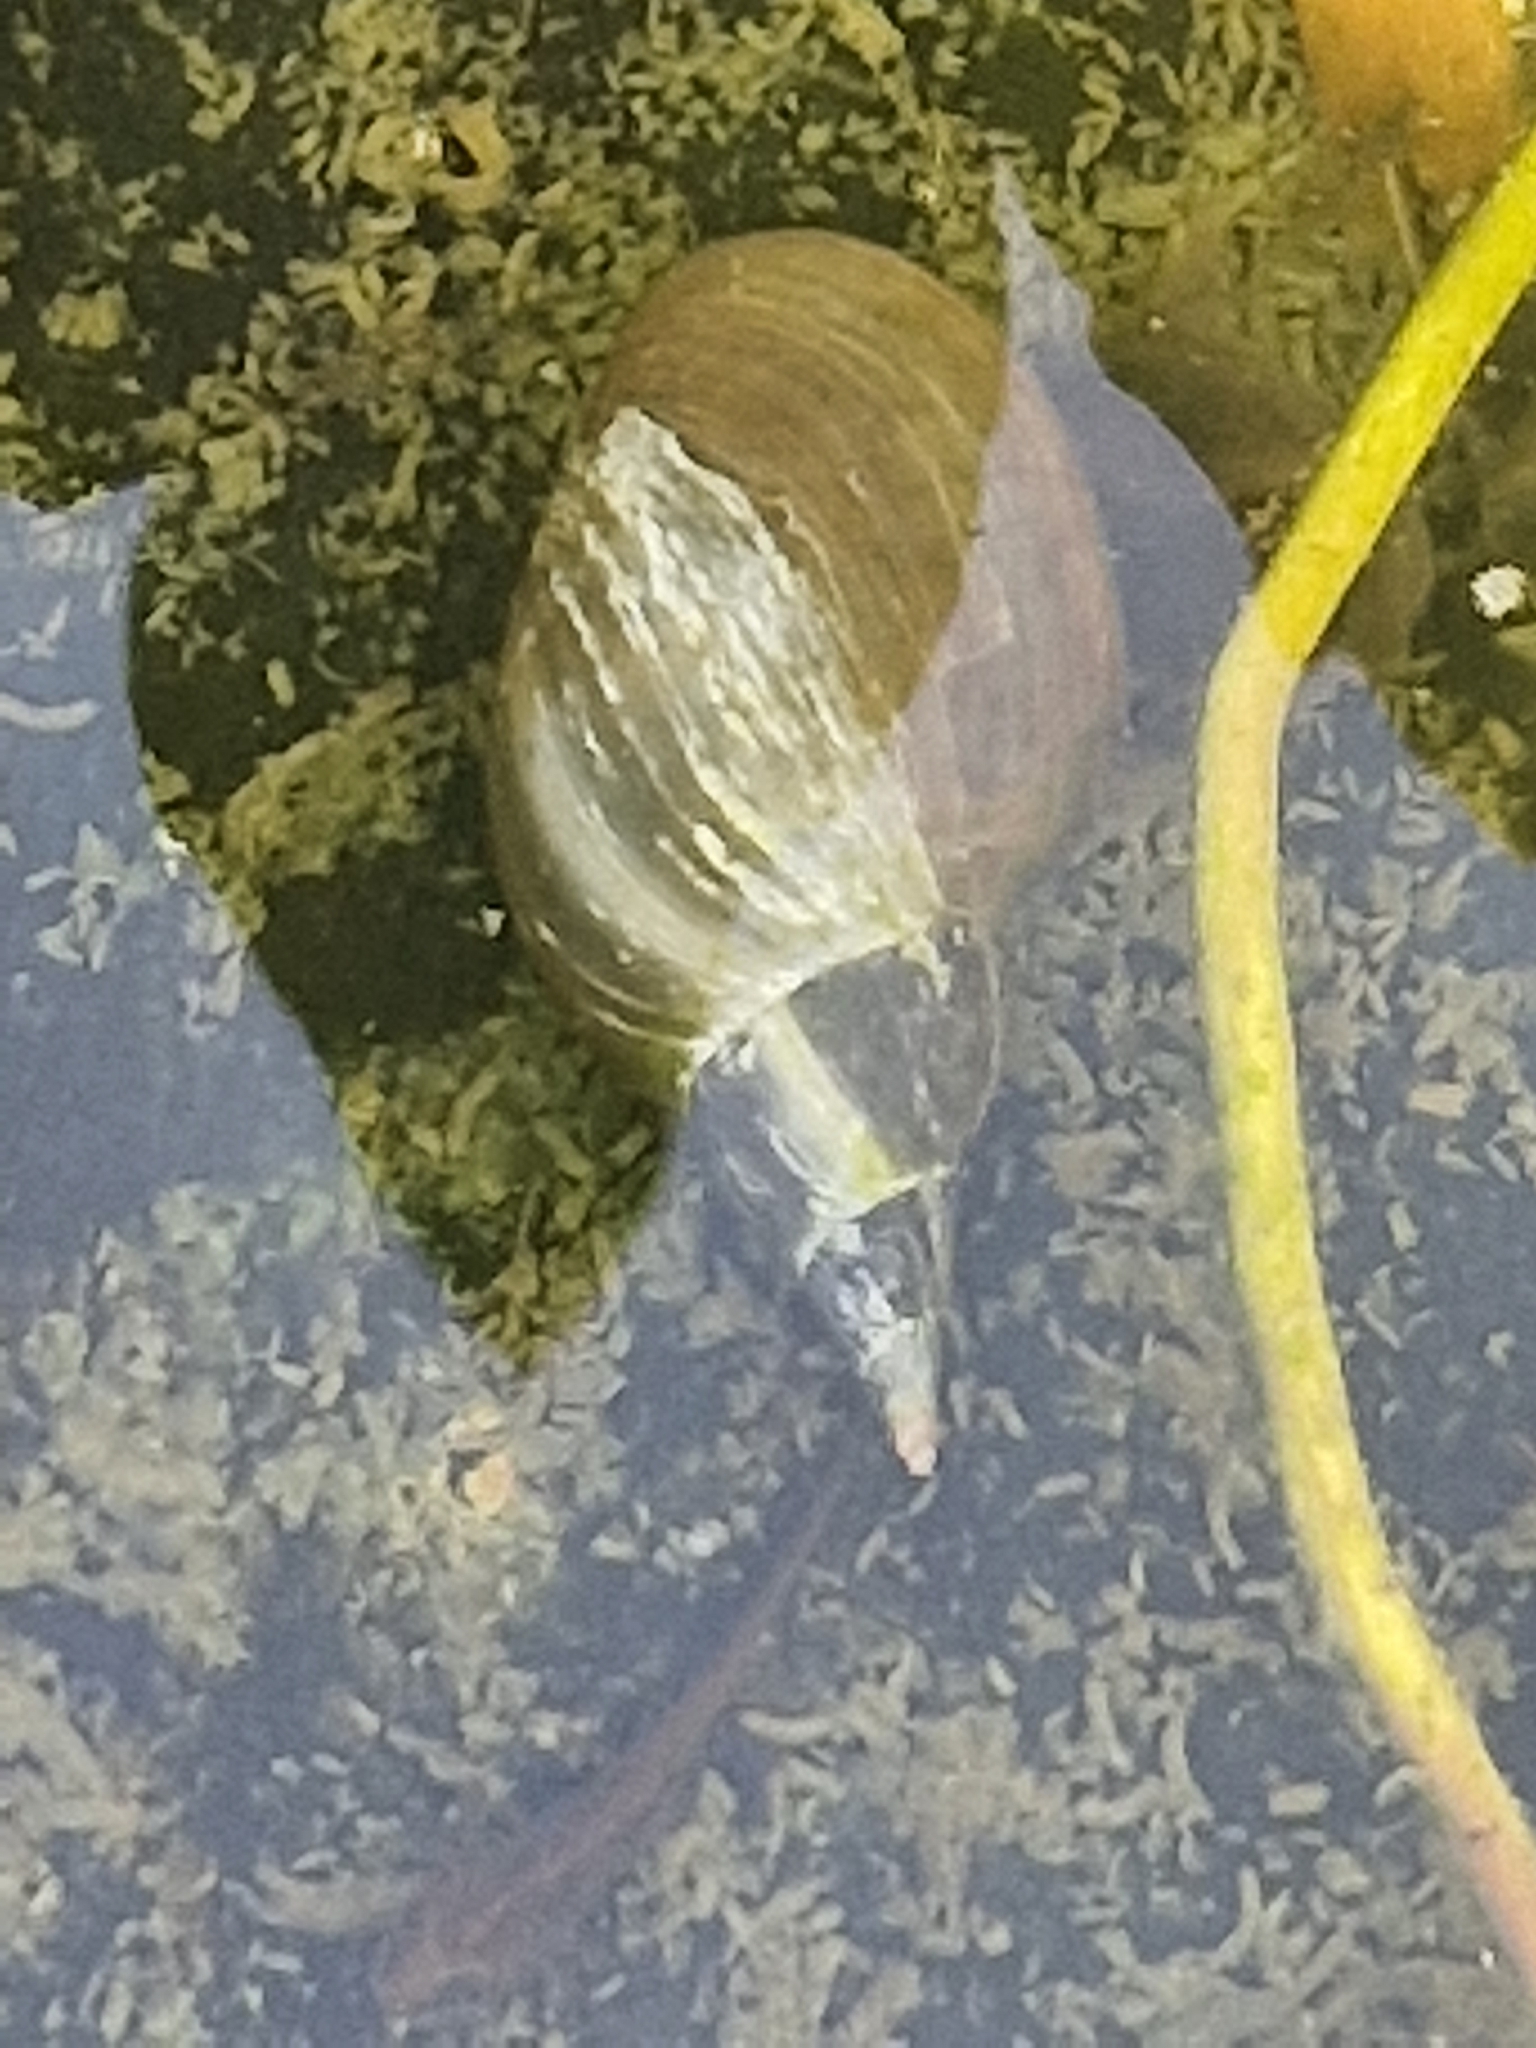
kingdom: Animalia
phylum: Mollusca
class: Gastropoda
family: Lymnaeidae
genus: Lymnaea
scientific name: Lymnaea stagnalis
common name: Great pond snail
